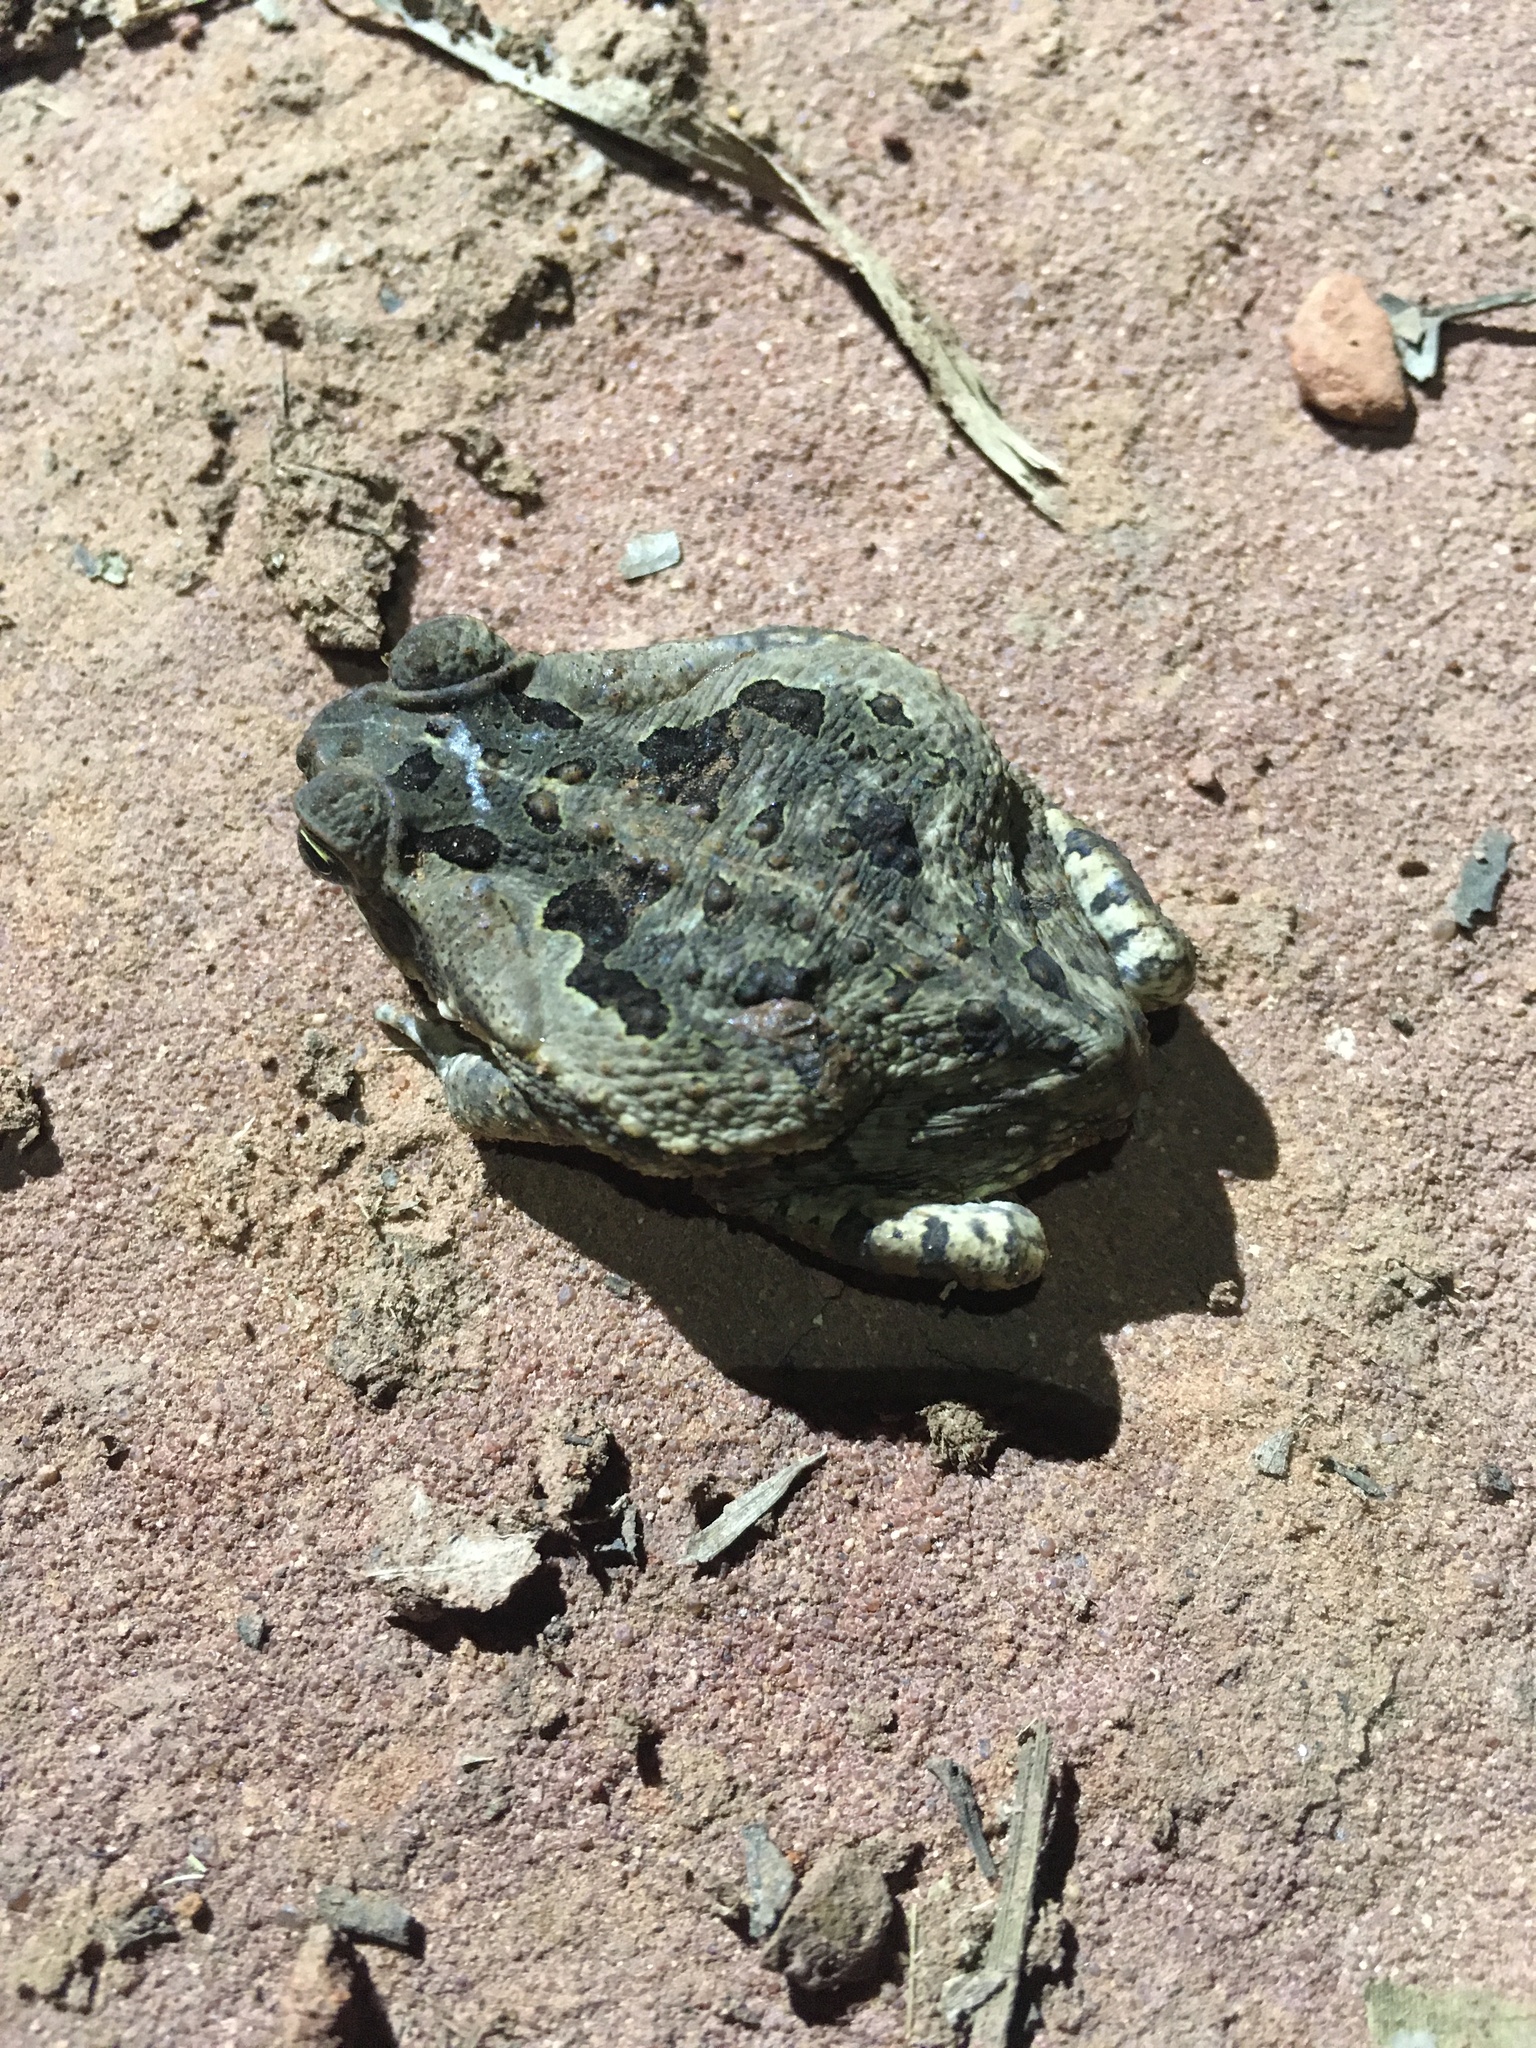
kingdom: Animalia
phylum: Chordata
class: Amphibia
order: Anura
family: Bufonidae
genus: Rhinella
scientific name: Rhinella diptycha
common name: Cope's toad
